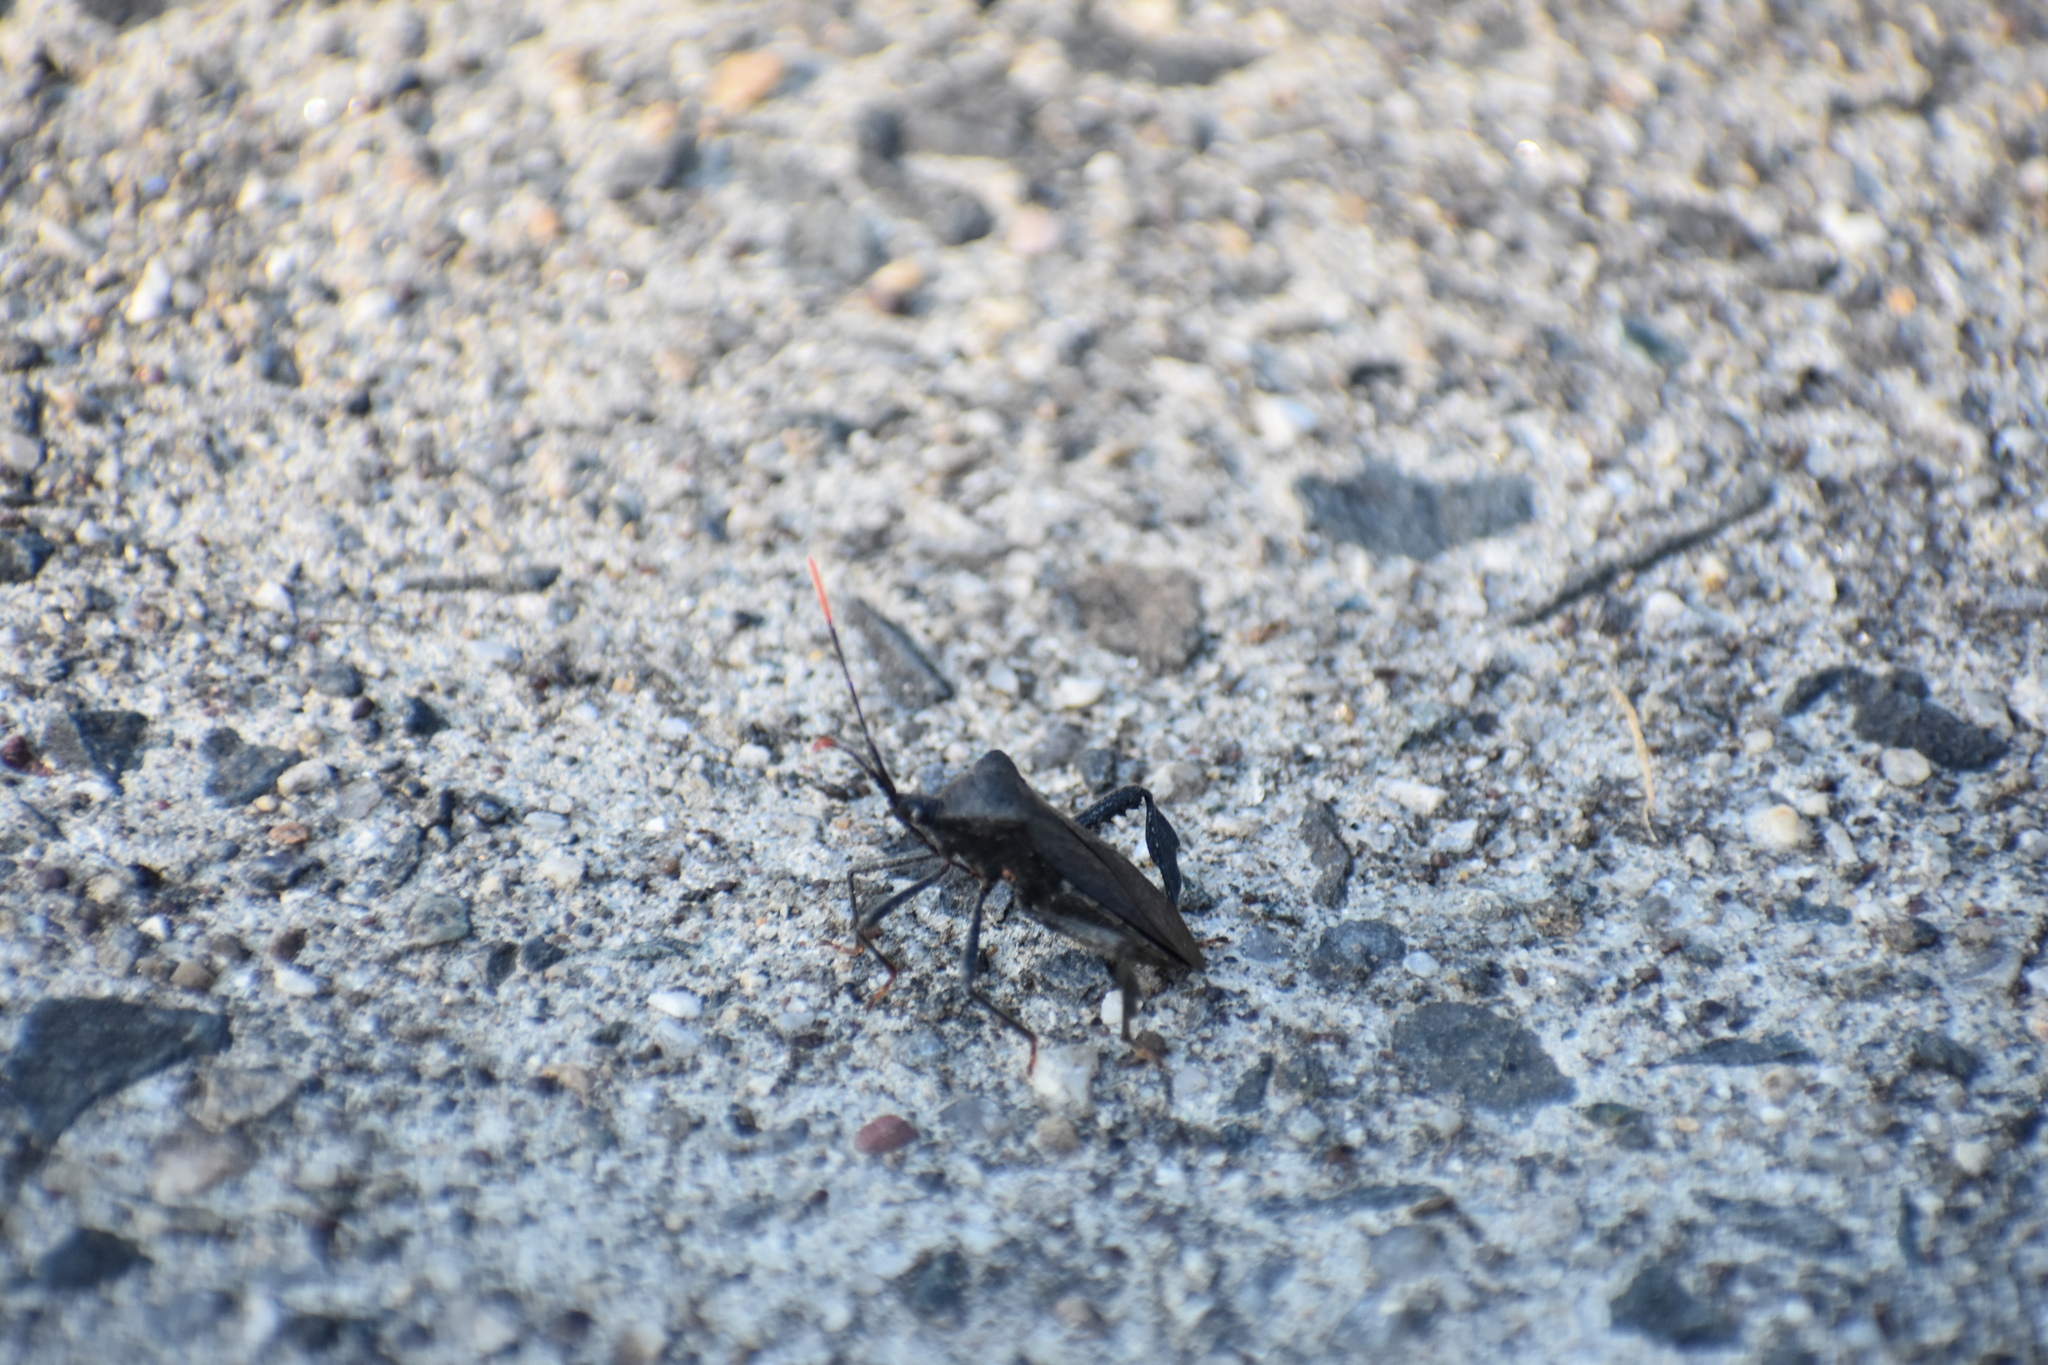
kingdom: Animalia
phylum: Arthropoda
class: Insecta
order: Hemiptera
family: Coreidae
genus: Acanthocephala
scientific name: Acanthocephala terminalis
